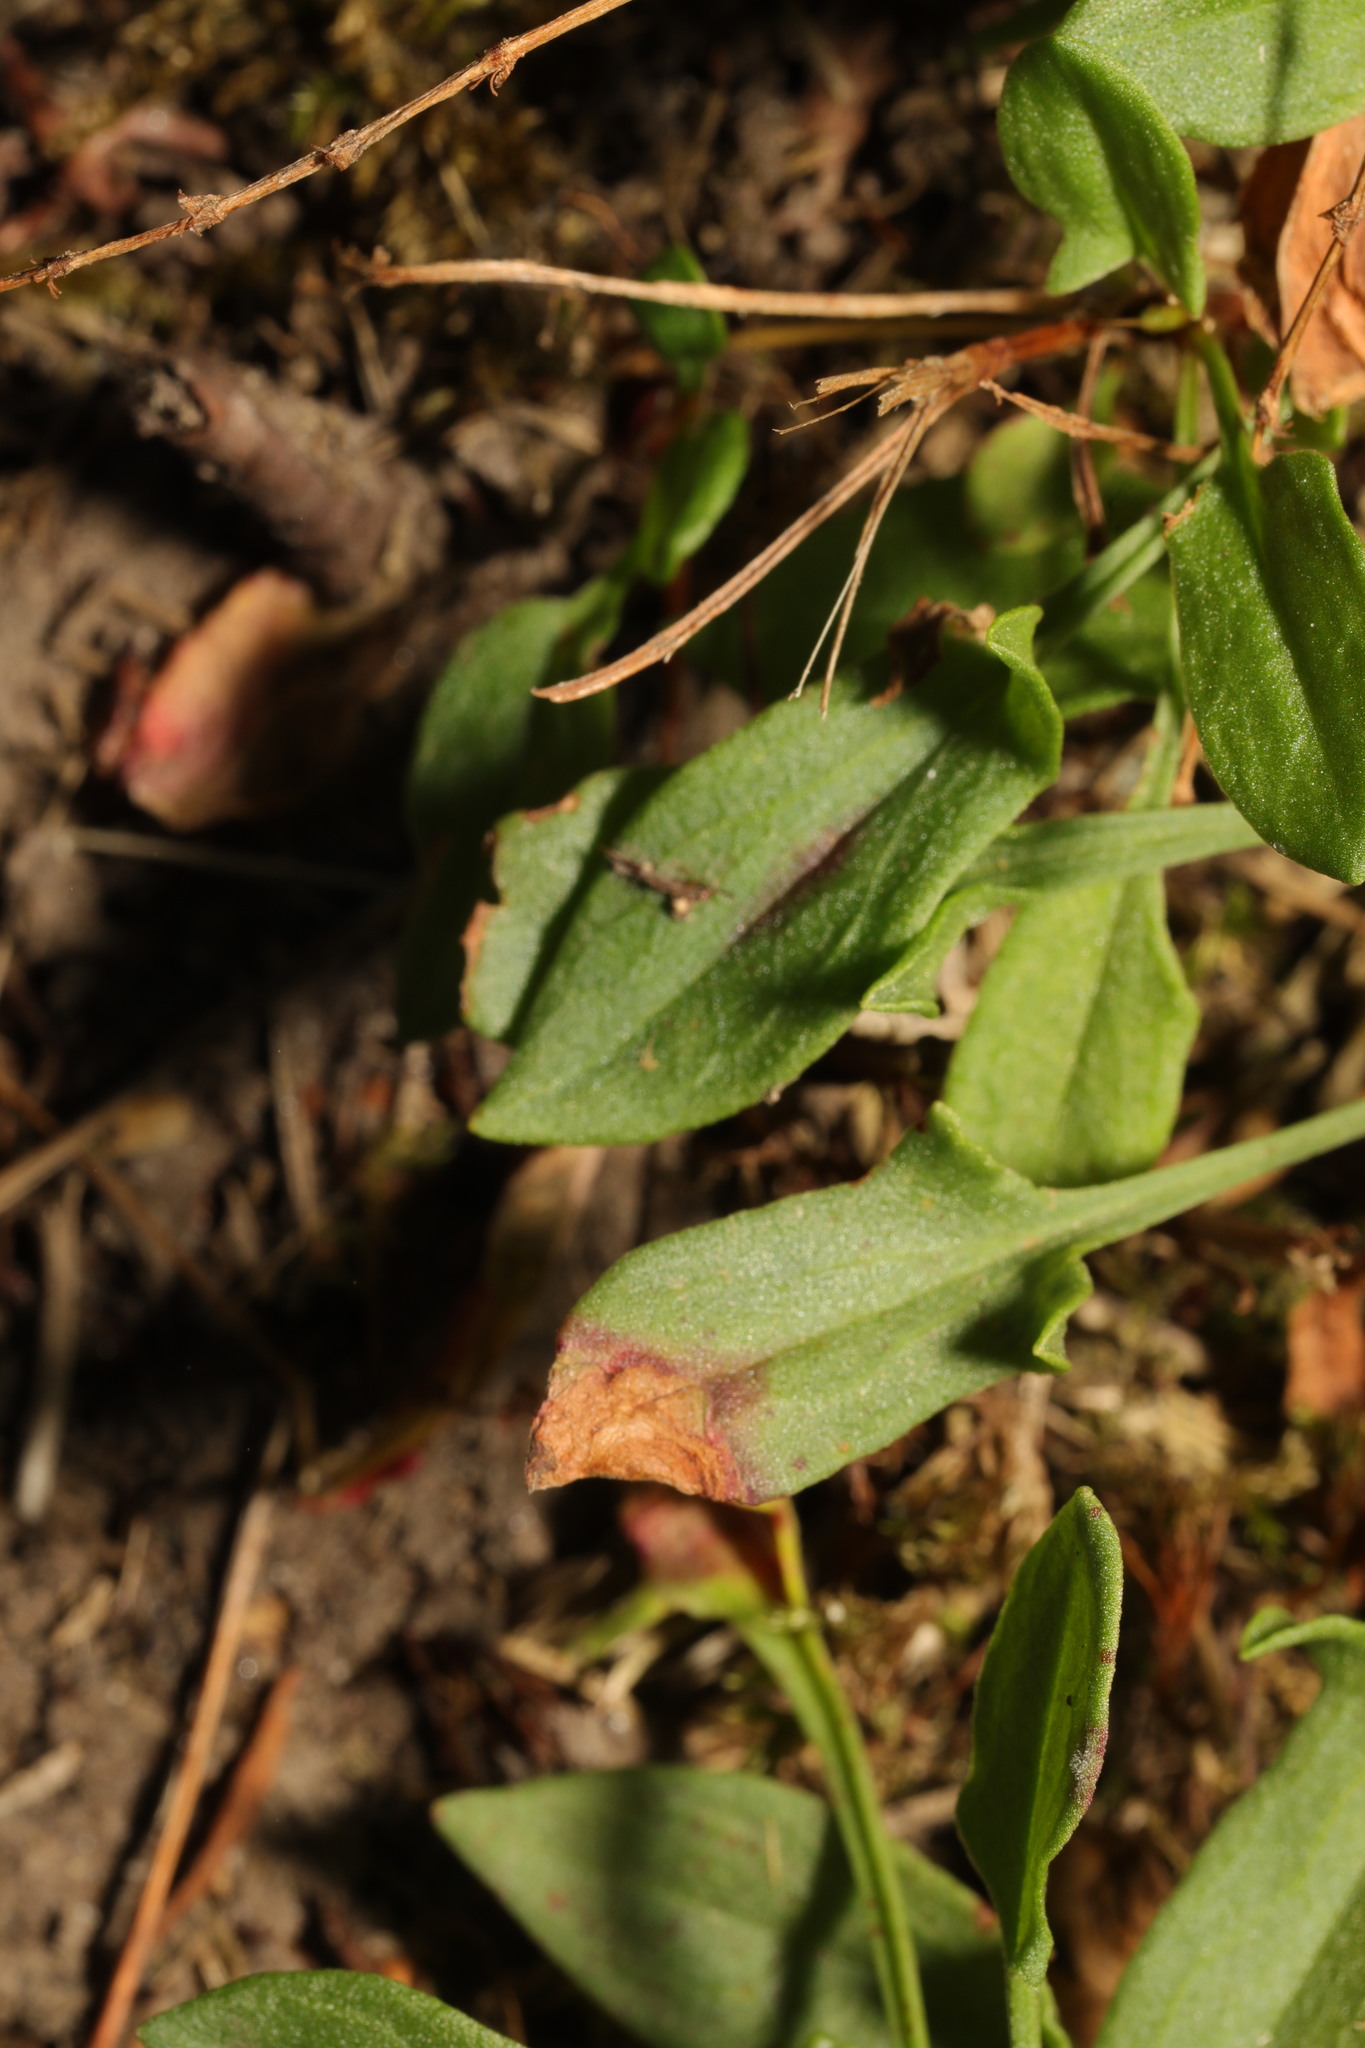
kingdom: Plantae
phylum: Tracheophyta
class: Magnoliopsida
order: Caryophyllales
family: Polygonaceae
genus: Rumex
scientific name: Rumex acetosella
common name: Common sheep sorrel
